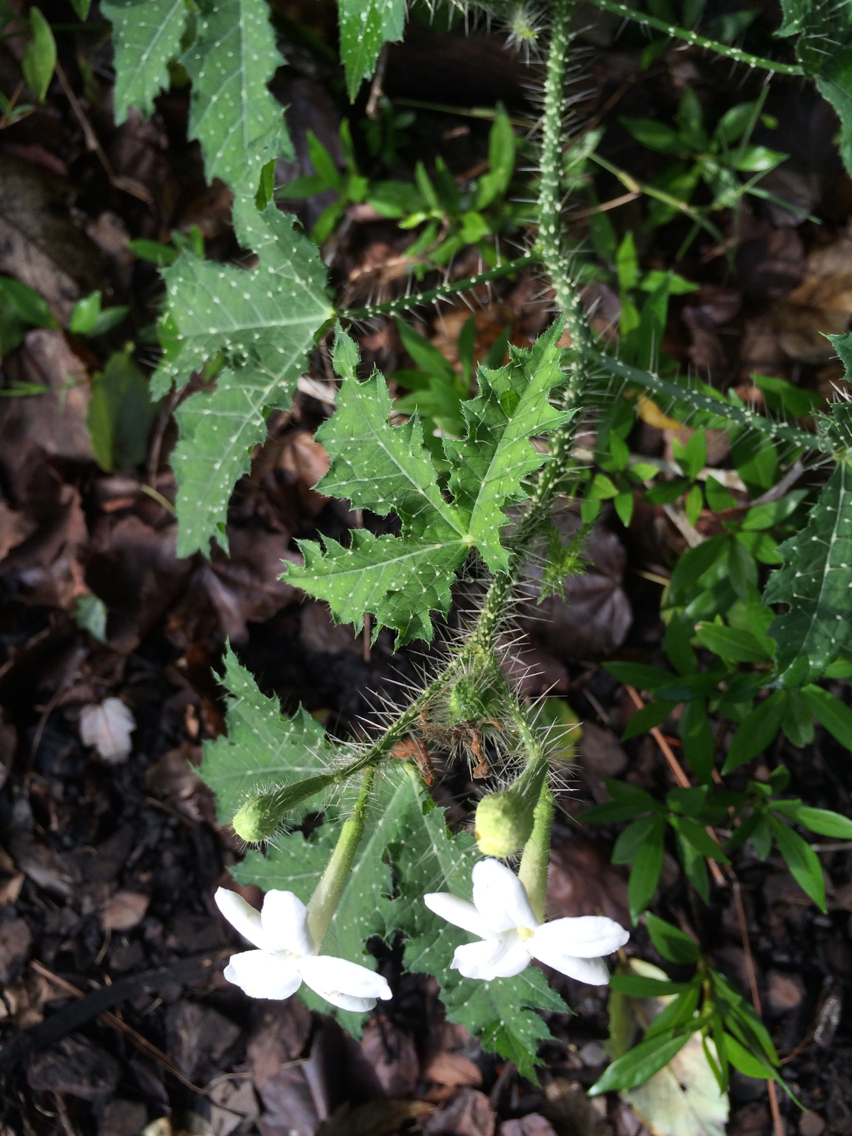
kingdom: Plantae
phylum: Tracheophyta
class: Magnoliopsida
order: Malpighiales
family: Euphorbiaceae
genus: Cnidoscolus
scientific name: Cnidoscolus texanus
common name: Texas bull-nettle
